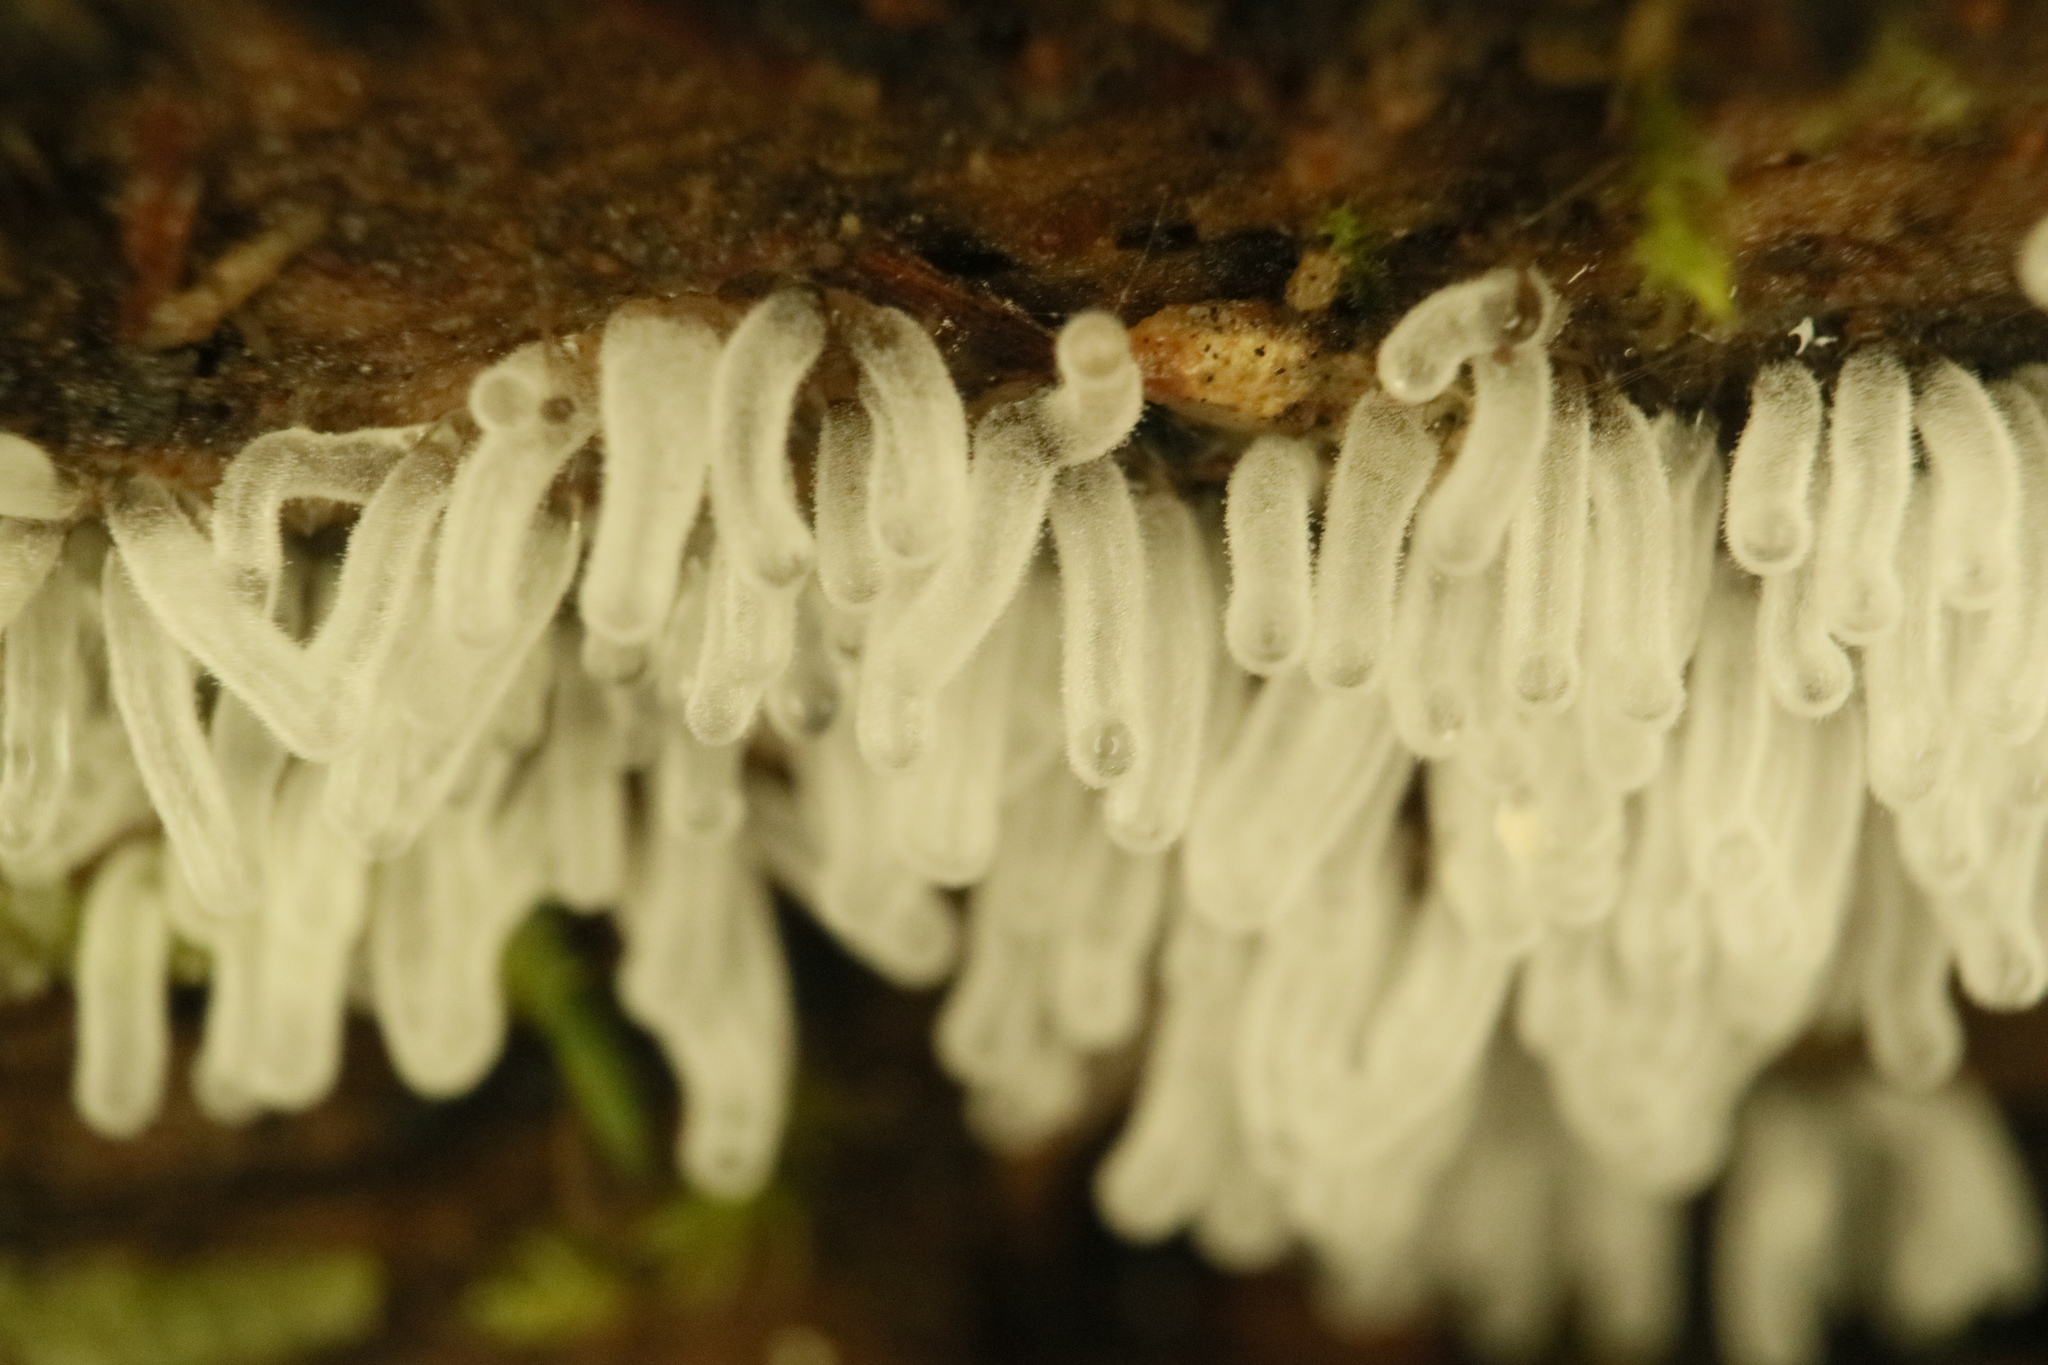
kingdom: Protozoa
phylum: Mycetozoa
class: Protosteliomycetes
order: Ceratiomyxales
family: Ceratiomyxaceae
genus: Ceratiomyxa
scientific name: Ceratiomyxa fruticulosa
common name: Honeycomb coral slime mold
